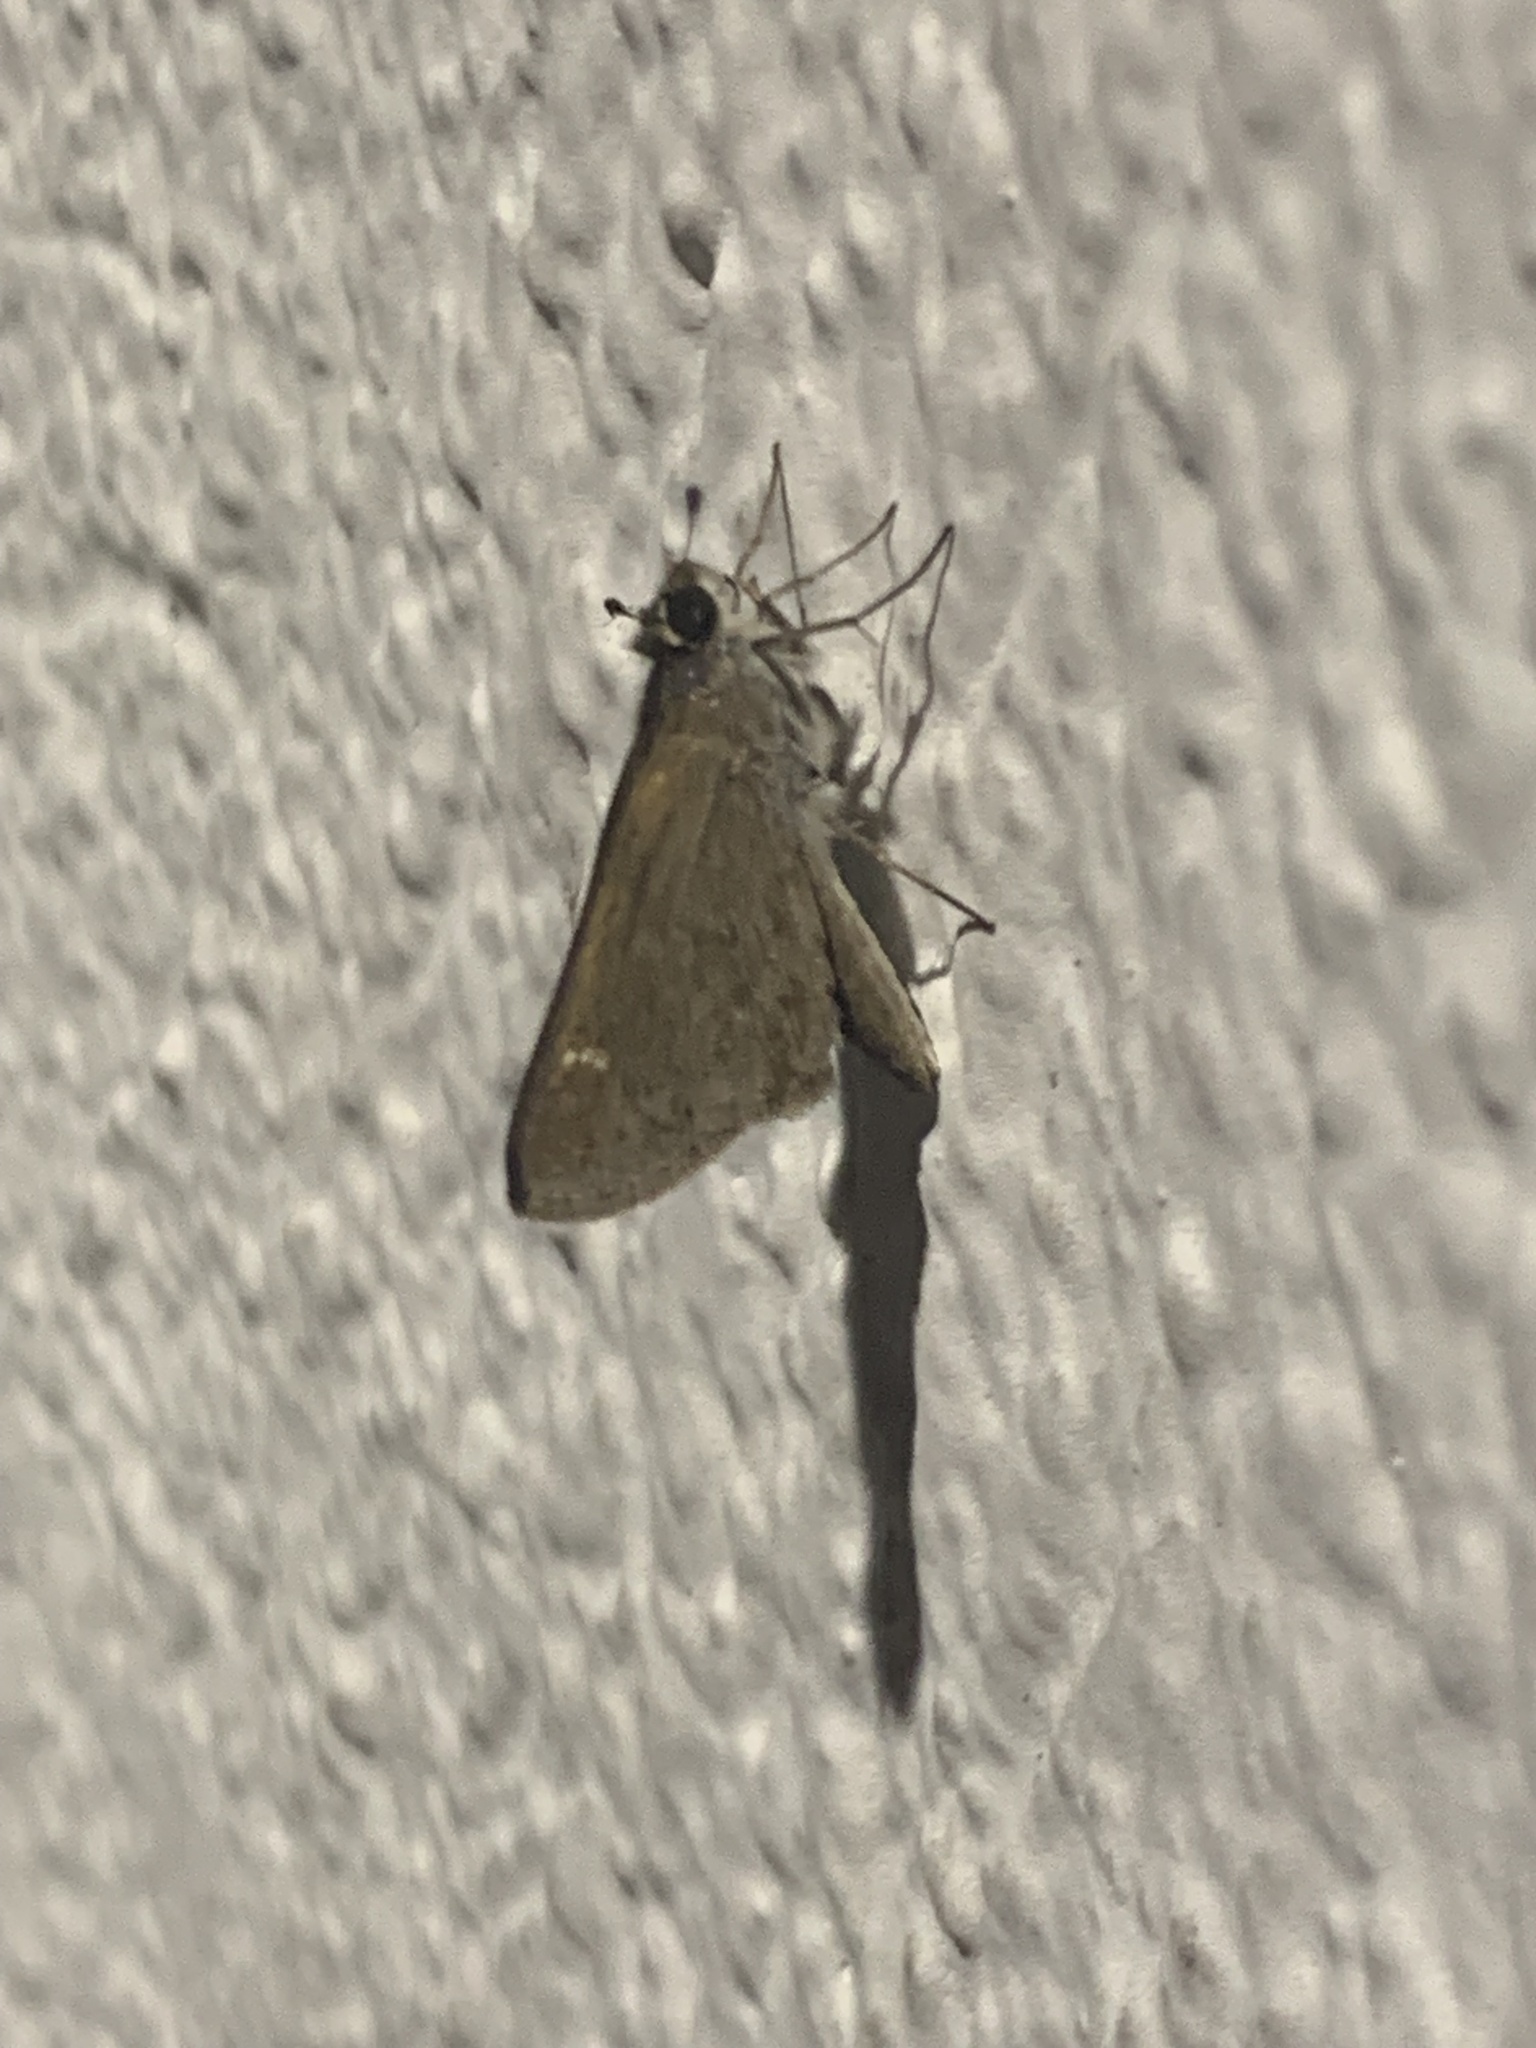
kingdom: Animalia
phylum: Arthropoda
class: Insecta
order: Lepidoptera
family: Hesperiidae
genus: Lerodea
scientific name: Lerodea eufala
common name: Eufala skipper
